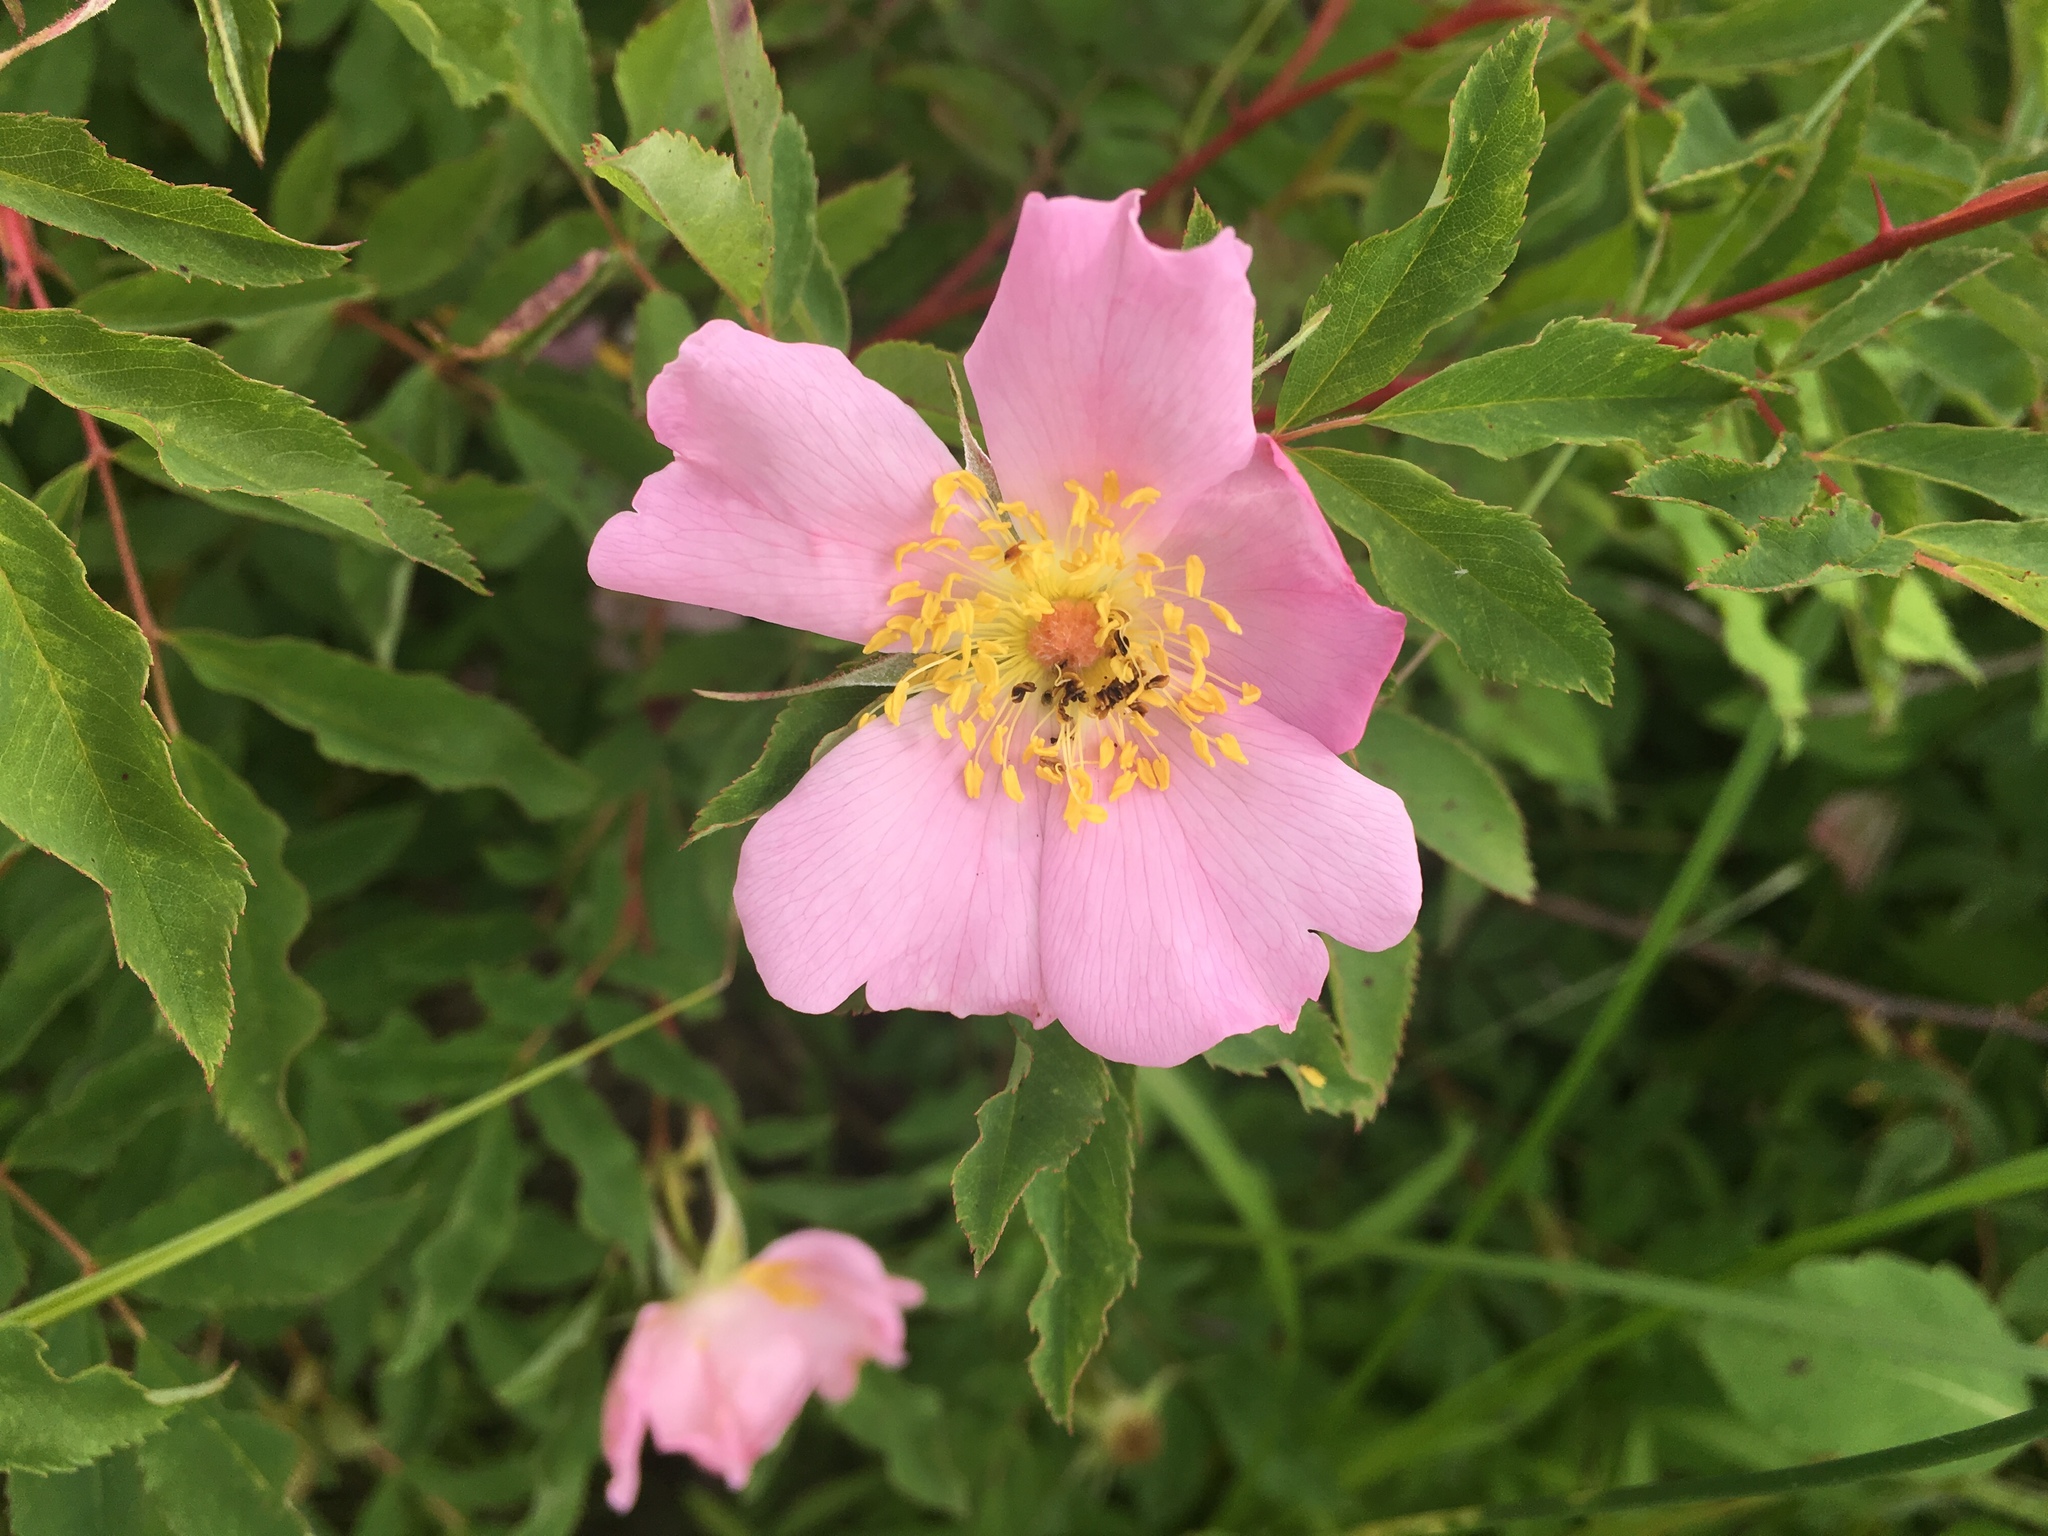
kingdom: Plantae
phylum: Tracheophyta
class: Magnoliopsida
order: Rosales
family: Rosaceae
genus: Rosa
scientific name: Rosa palustris
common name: Swamp rose
